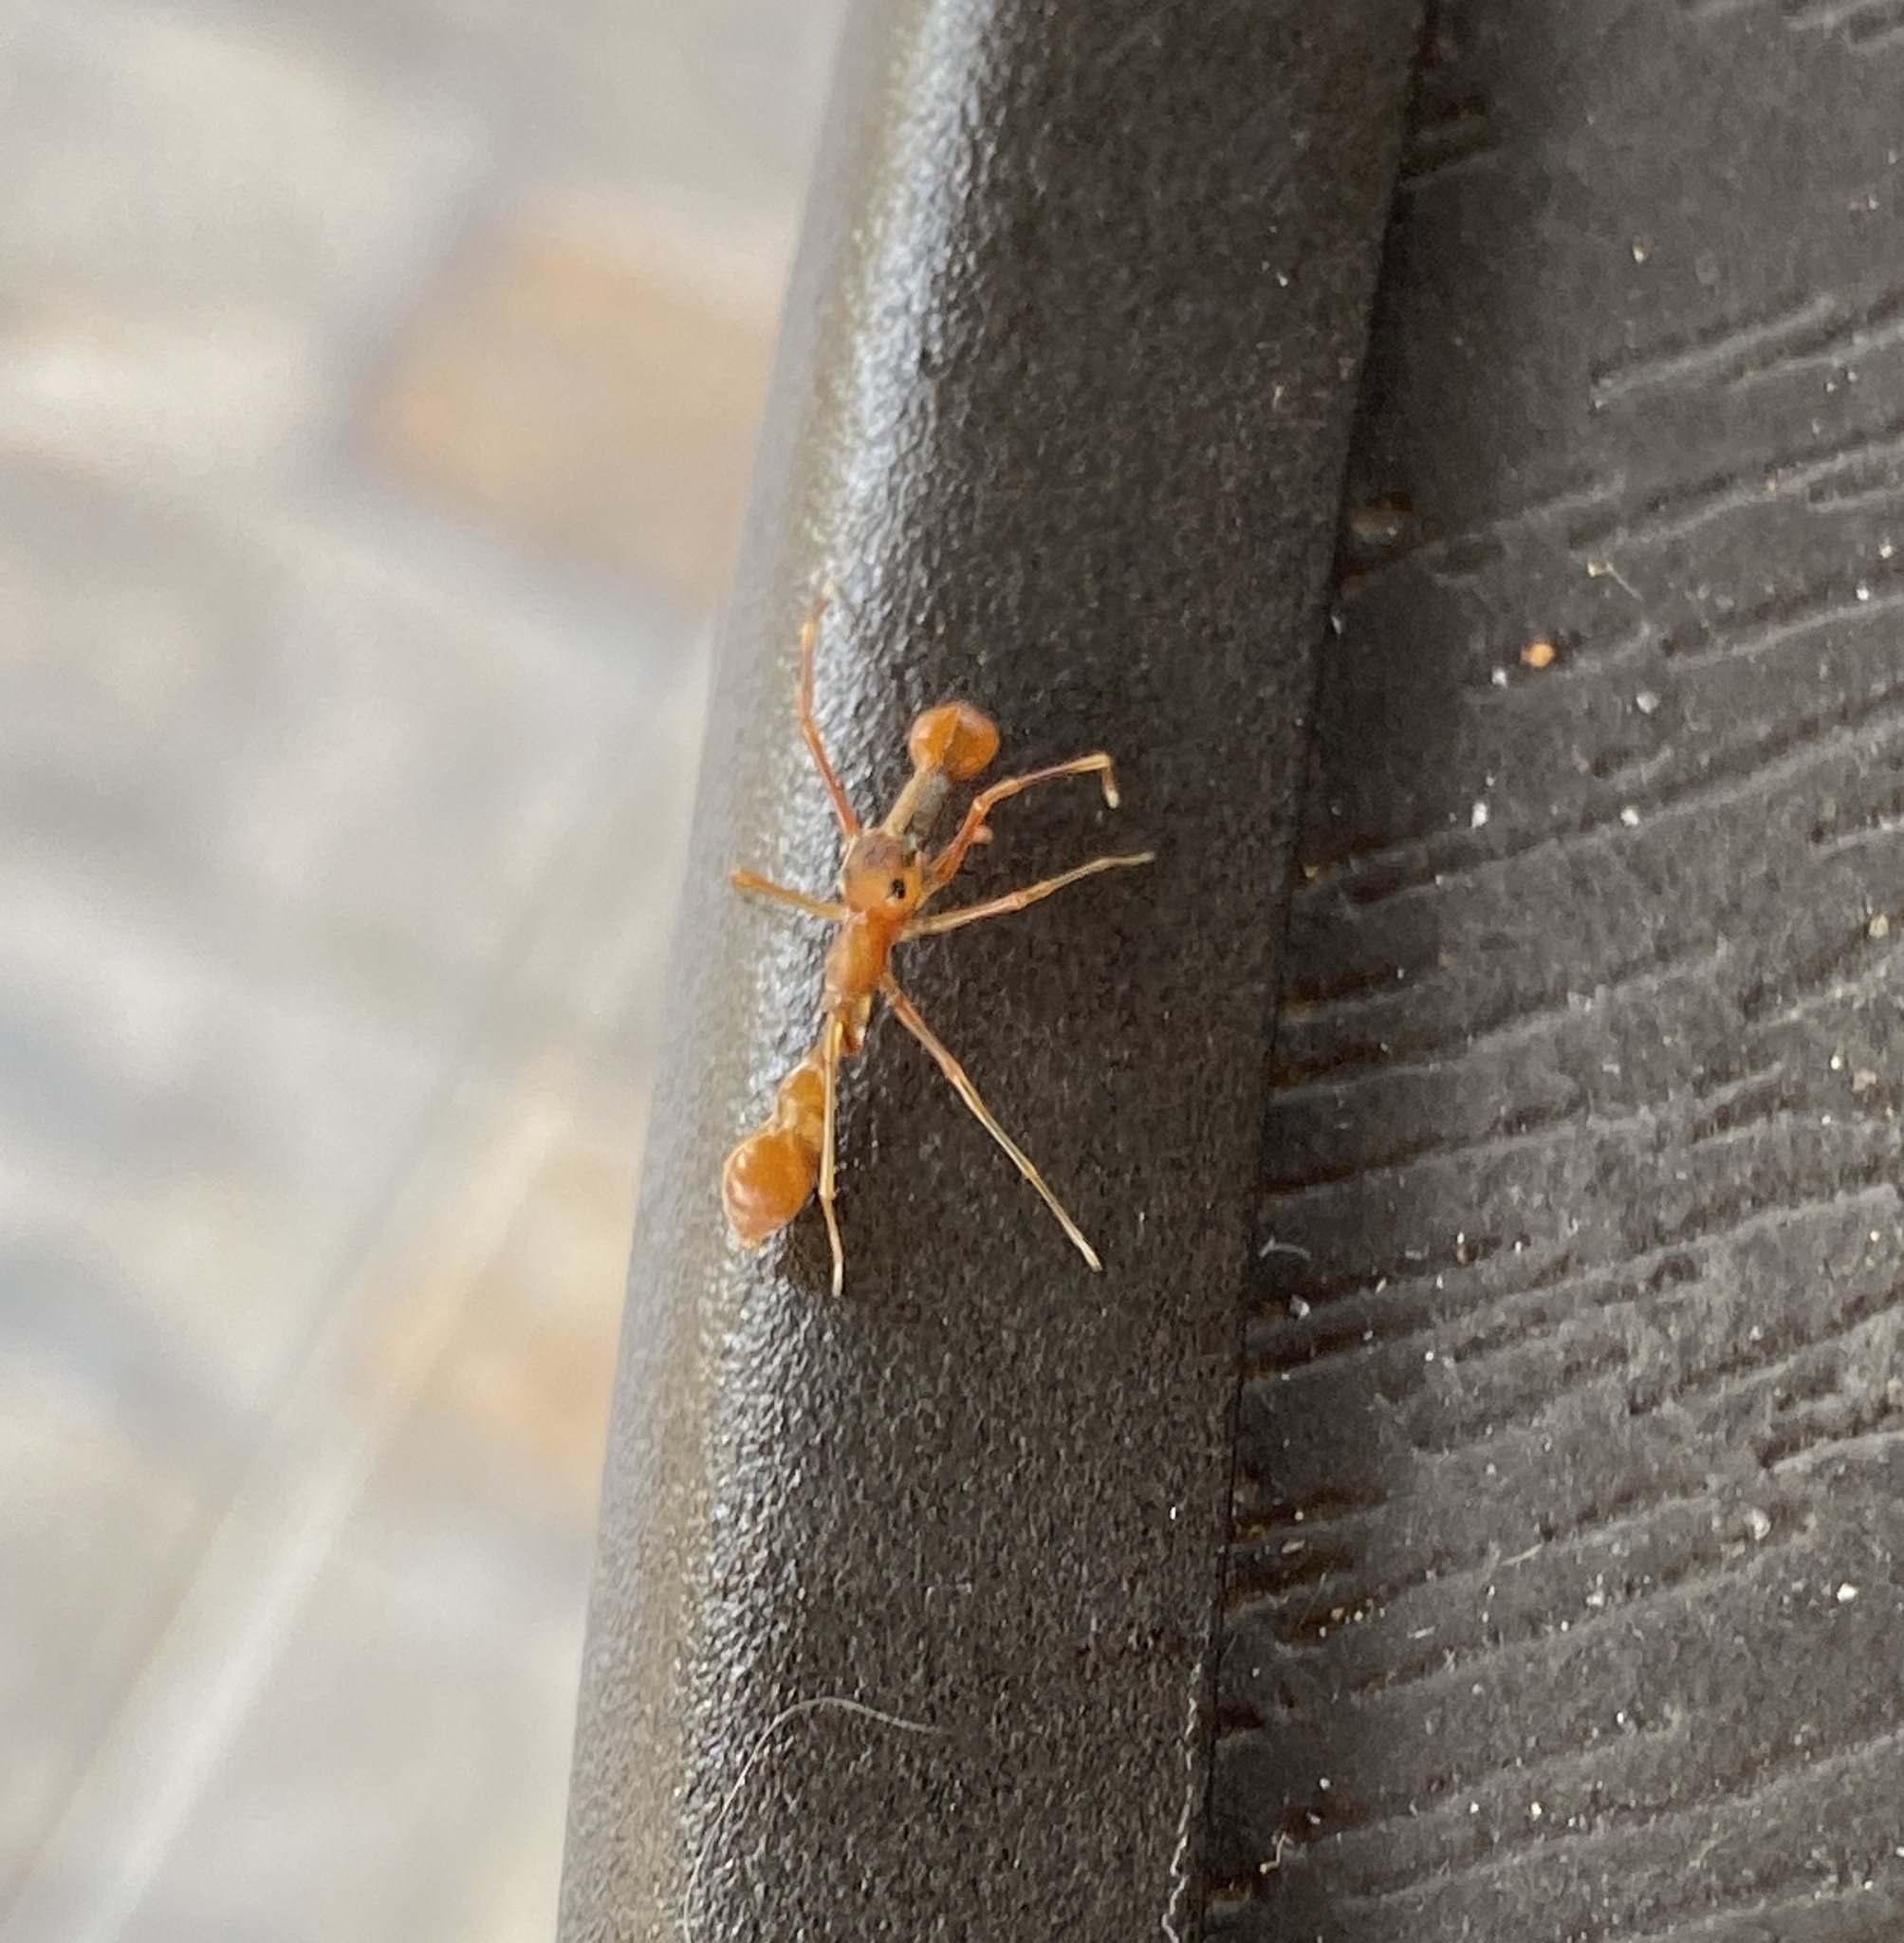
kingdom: Animalia
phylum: Arthropoda
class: Arachnida
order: Araneae
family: Salticidae
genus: Myrmaplata
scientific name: Myrmaplata plataleoides
